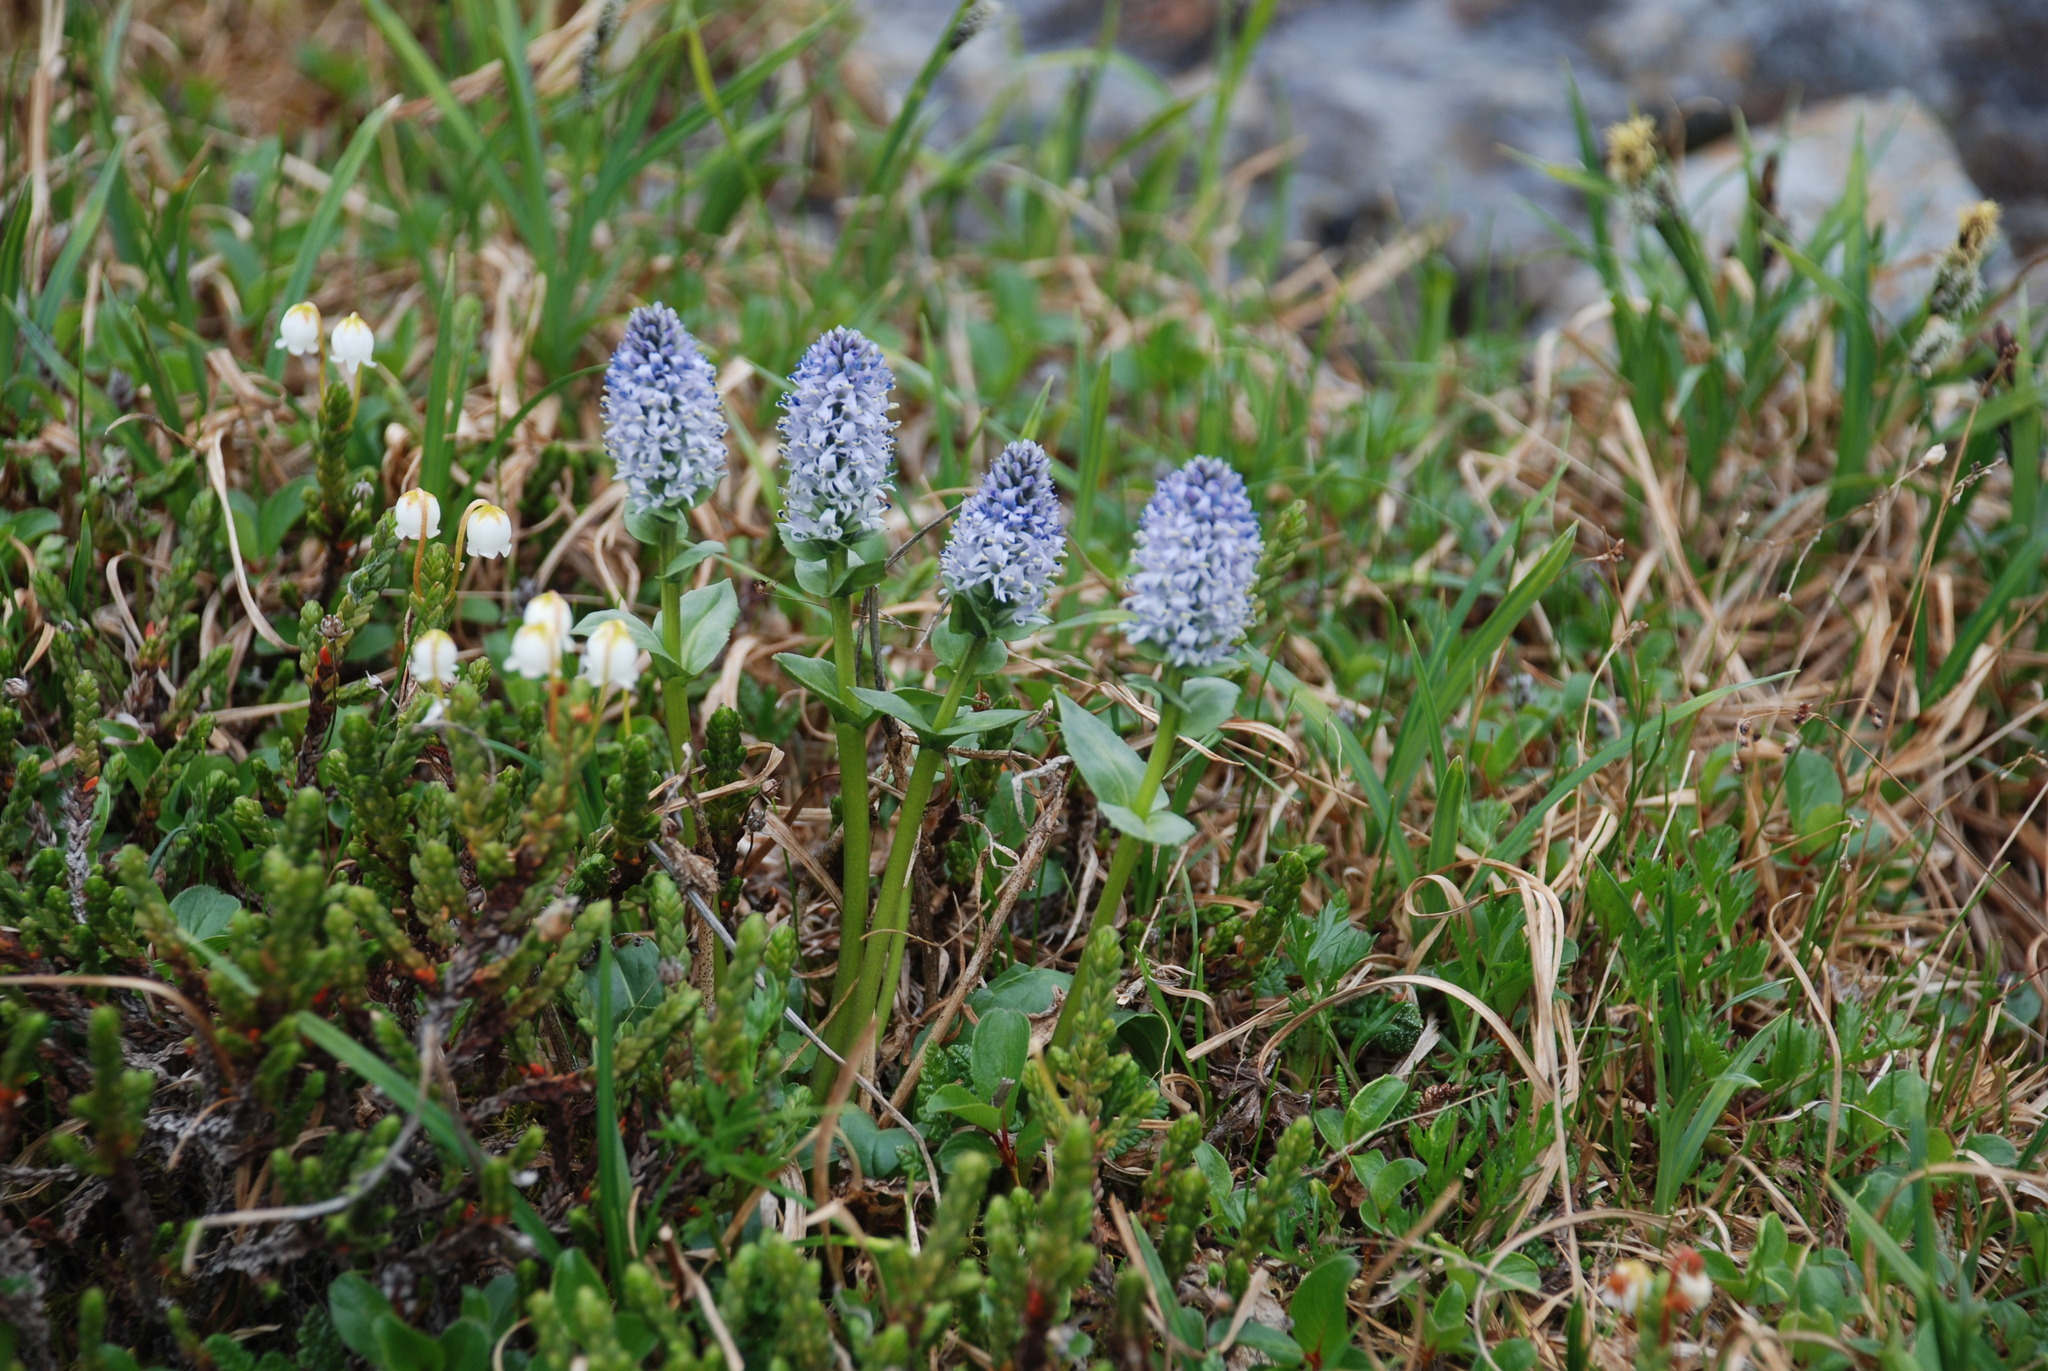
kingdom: Plantae
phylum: Tracheophyta
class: Magnoliopsida
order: Lamiales
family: Plantaginaceae
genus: Lagotis
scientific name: Lagotis glauca
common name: Glaucous weaselsnout
